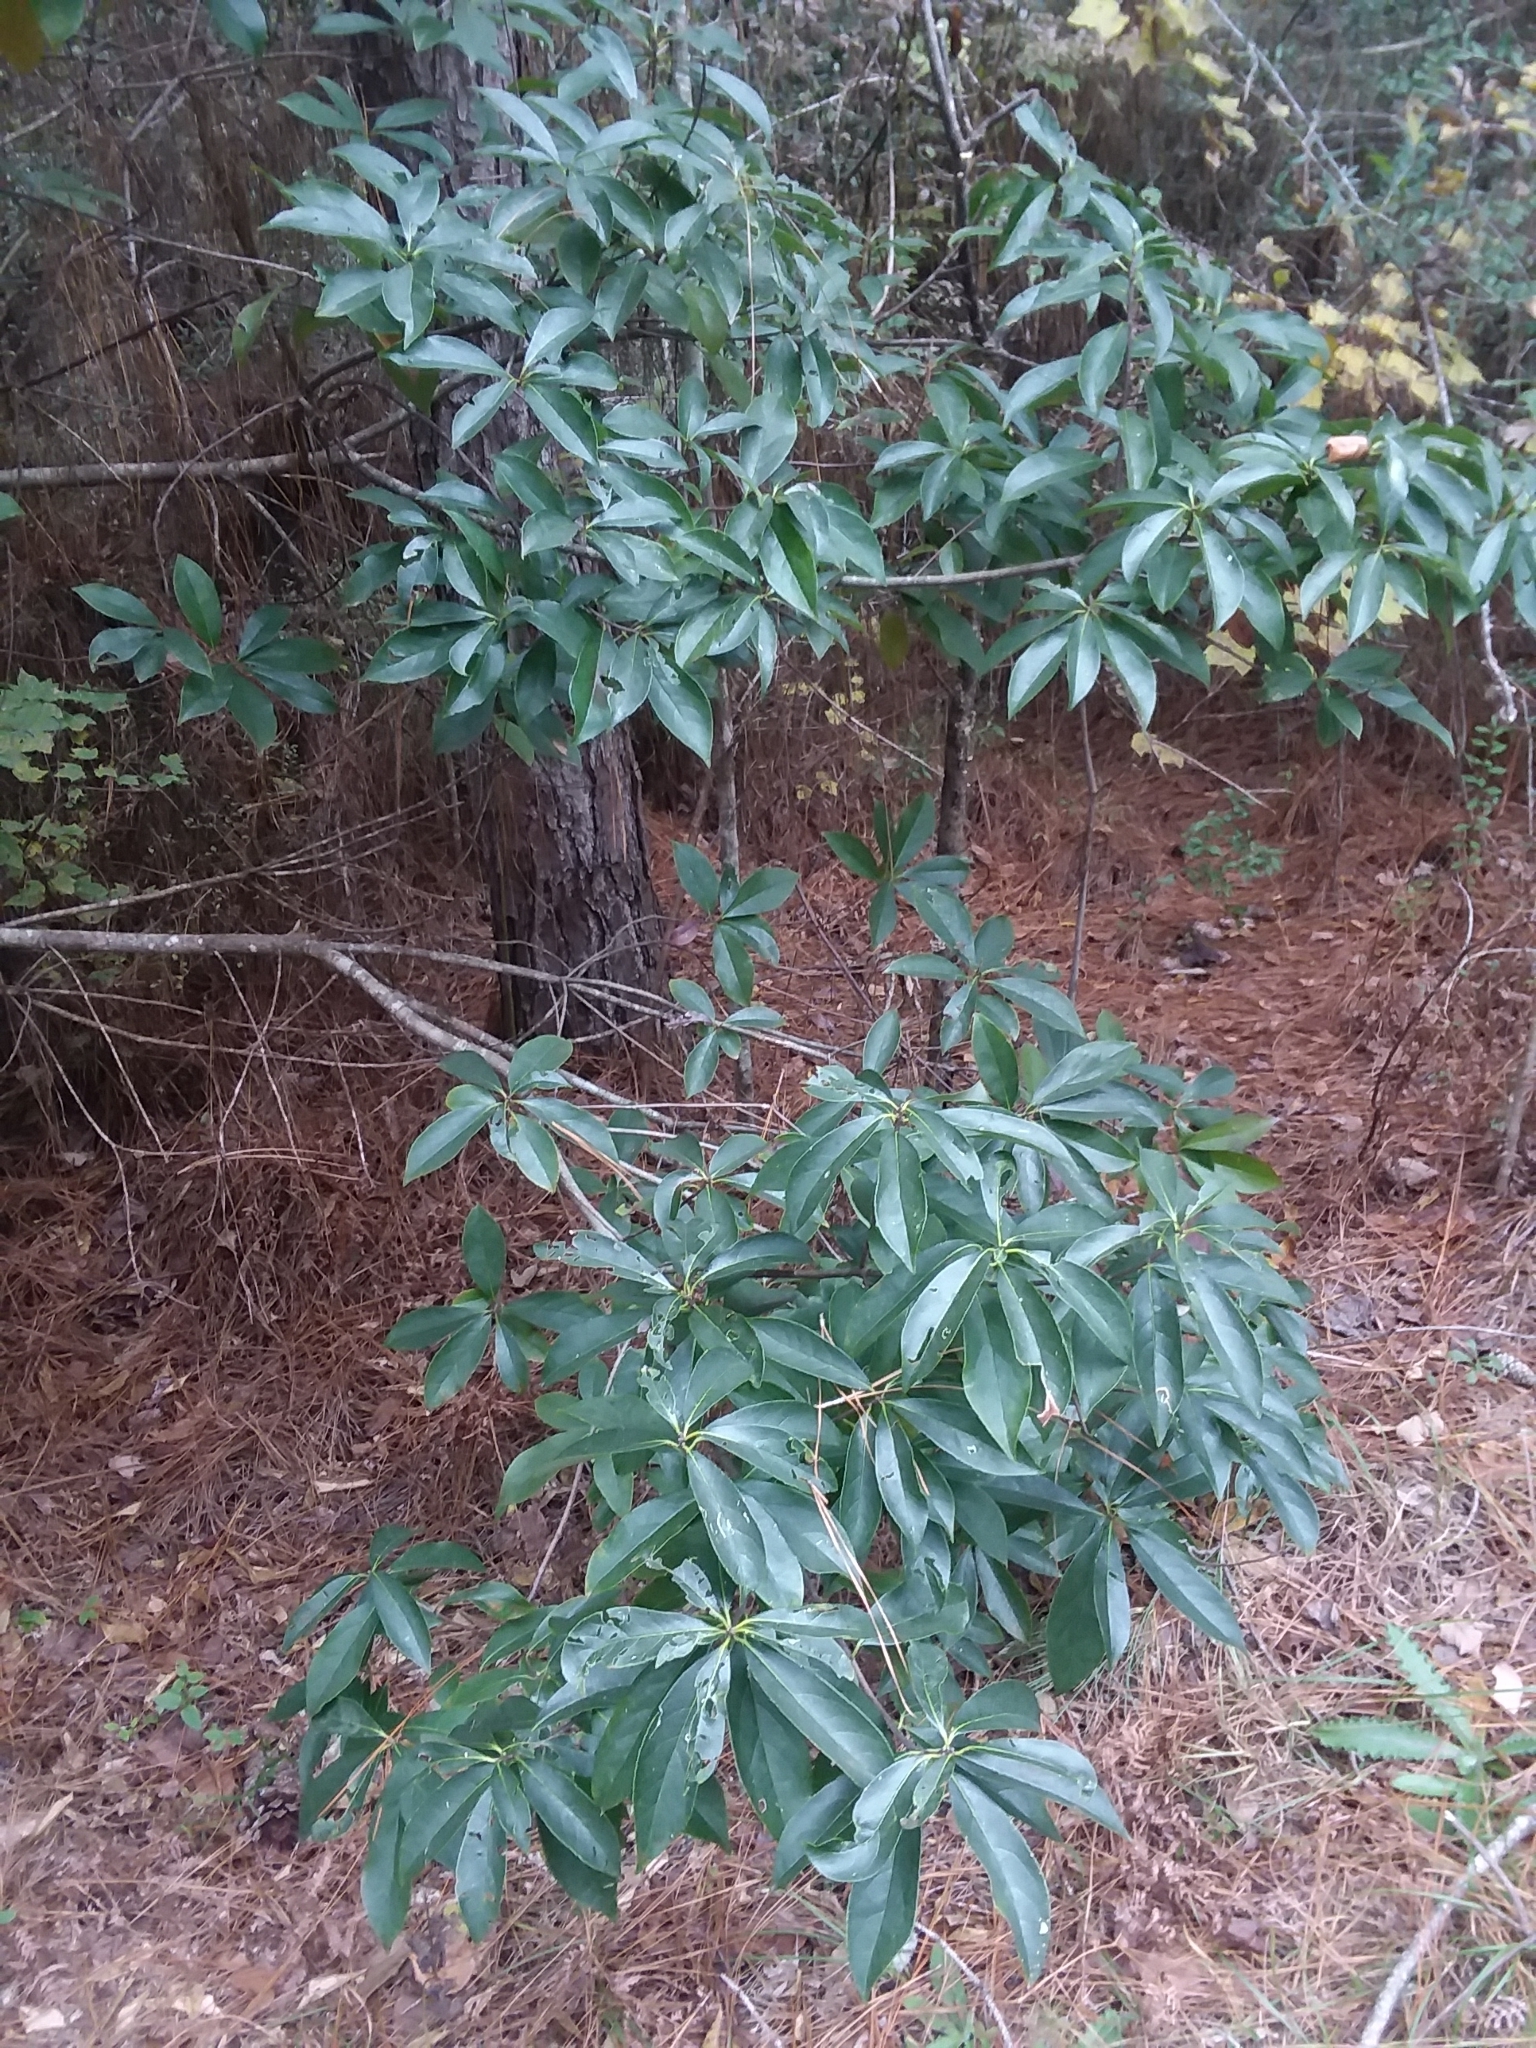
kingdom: Plantae
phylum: Tracheophyta
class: Magnoliopsida
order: Ericales
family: Symplocaceae
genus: Symplocos
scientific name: Symplocos tinctoria
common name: Horse-sugar
